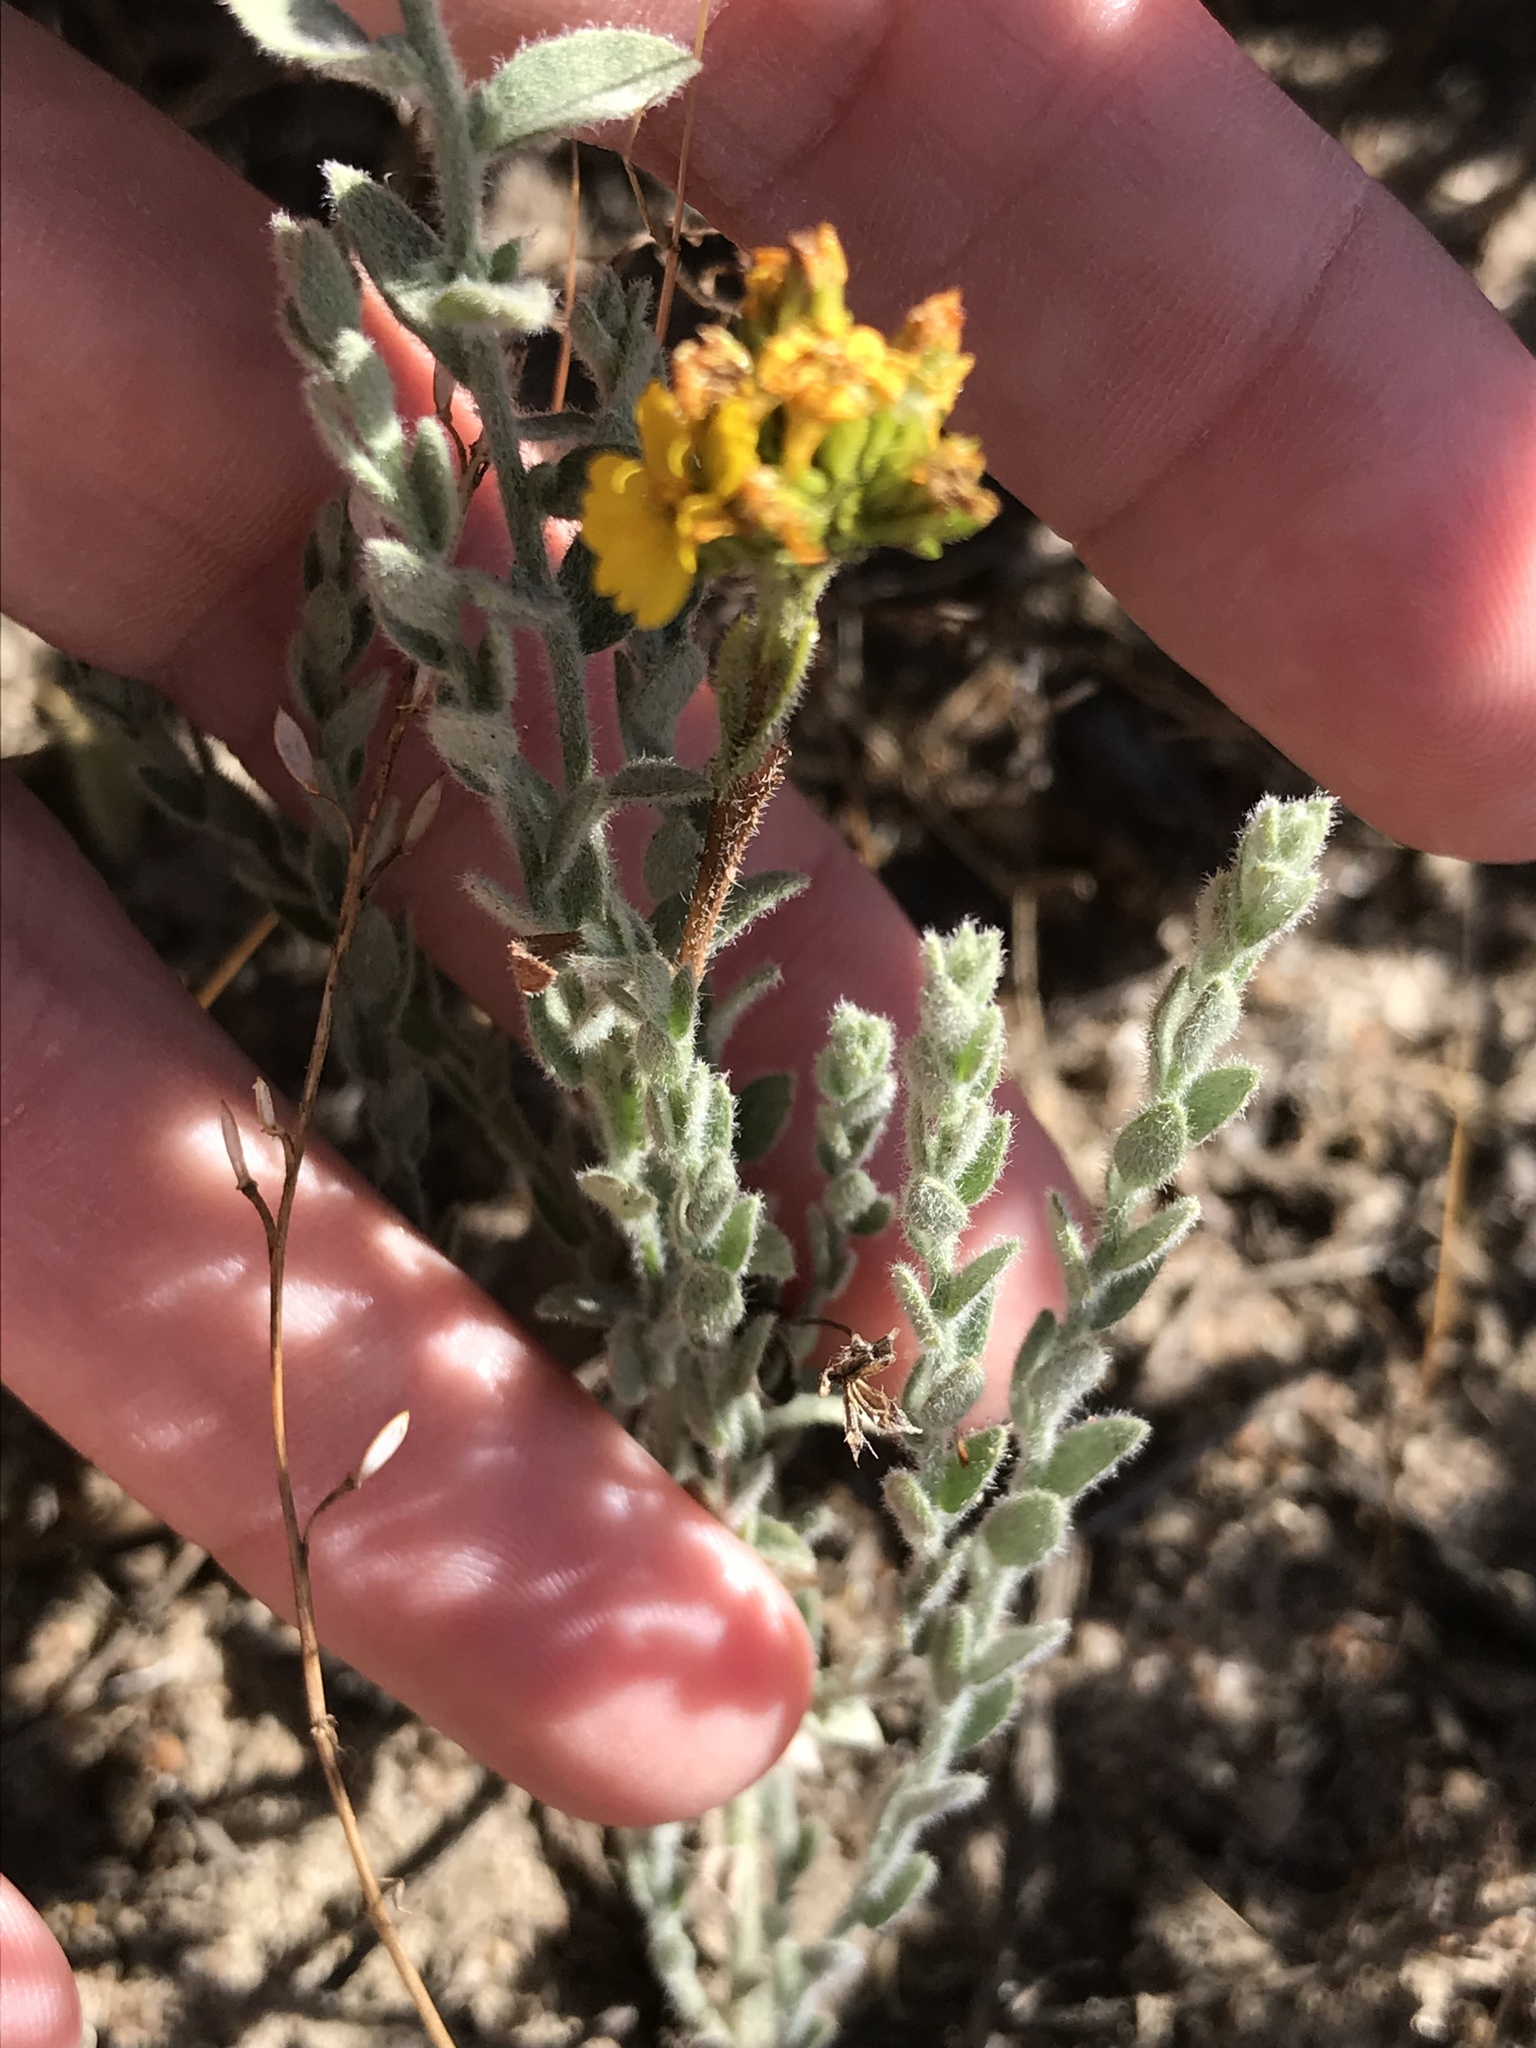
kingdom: Plantae
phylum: Tracheophyta
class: Magnoliopsida
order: Solanales
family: Convolvulaceae
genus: Cressa
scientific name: Cressa truxillensis
